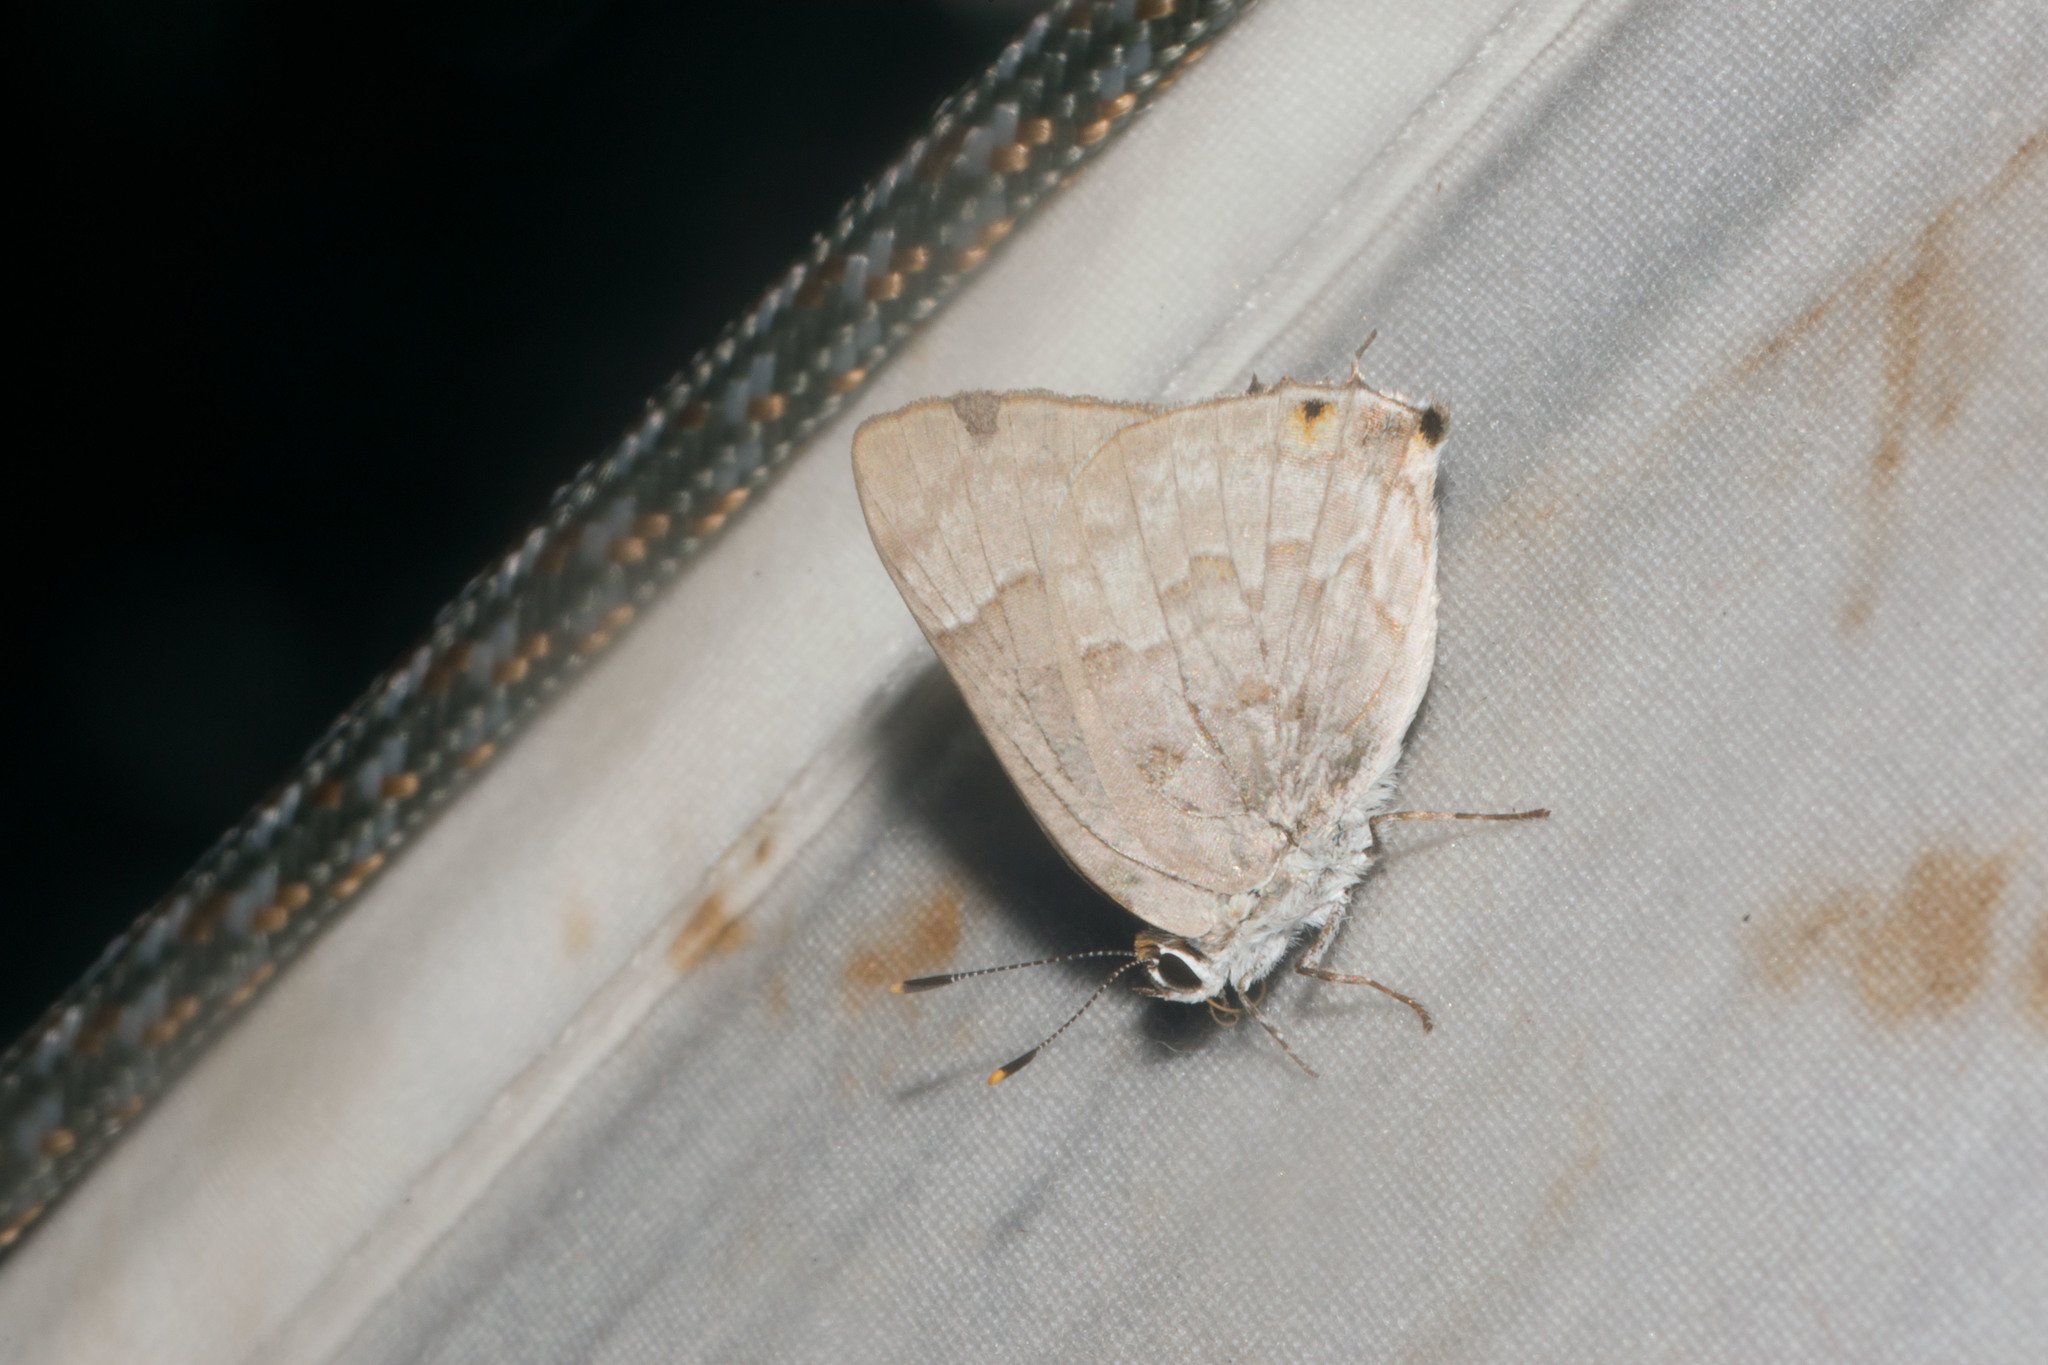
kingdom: Animalia
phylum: Arthropoda
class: Insecta
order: Lepidoptera
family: Lycaenidae
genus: Tmolus
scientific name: Tmolus echion
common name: Red-spotted hairstreak
